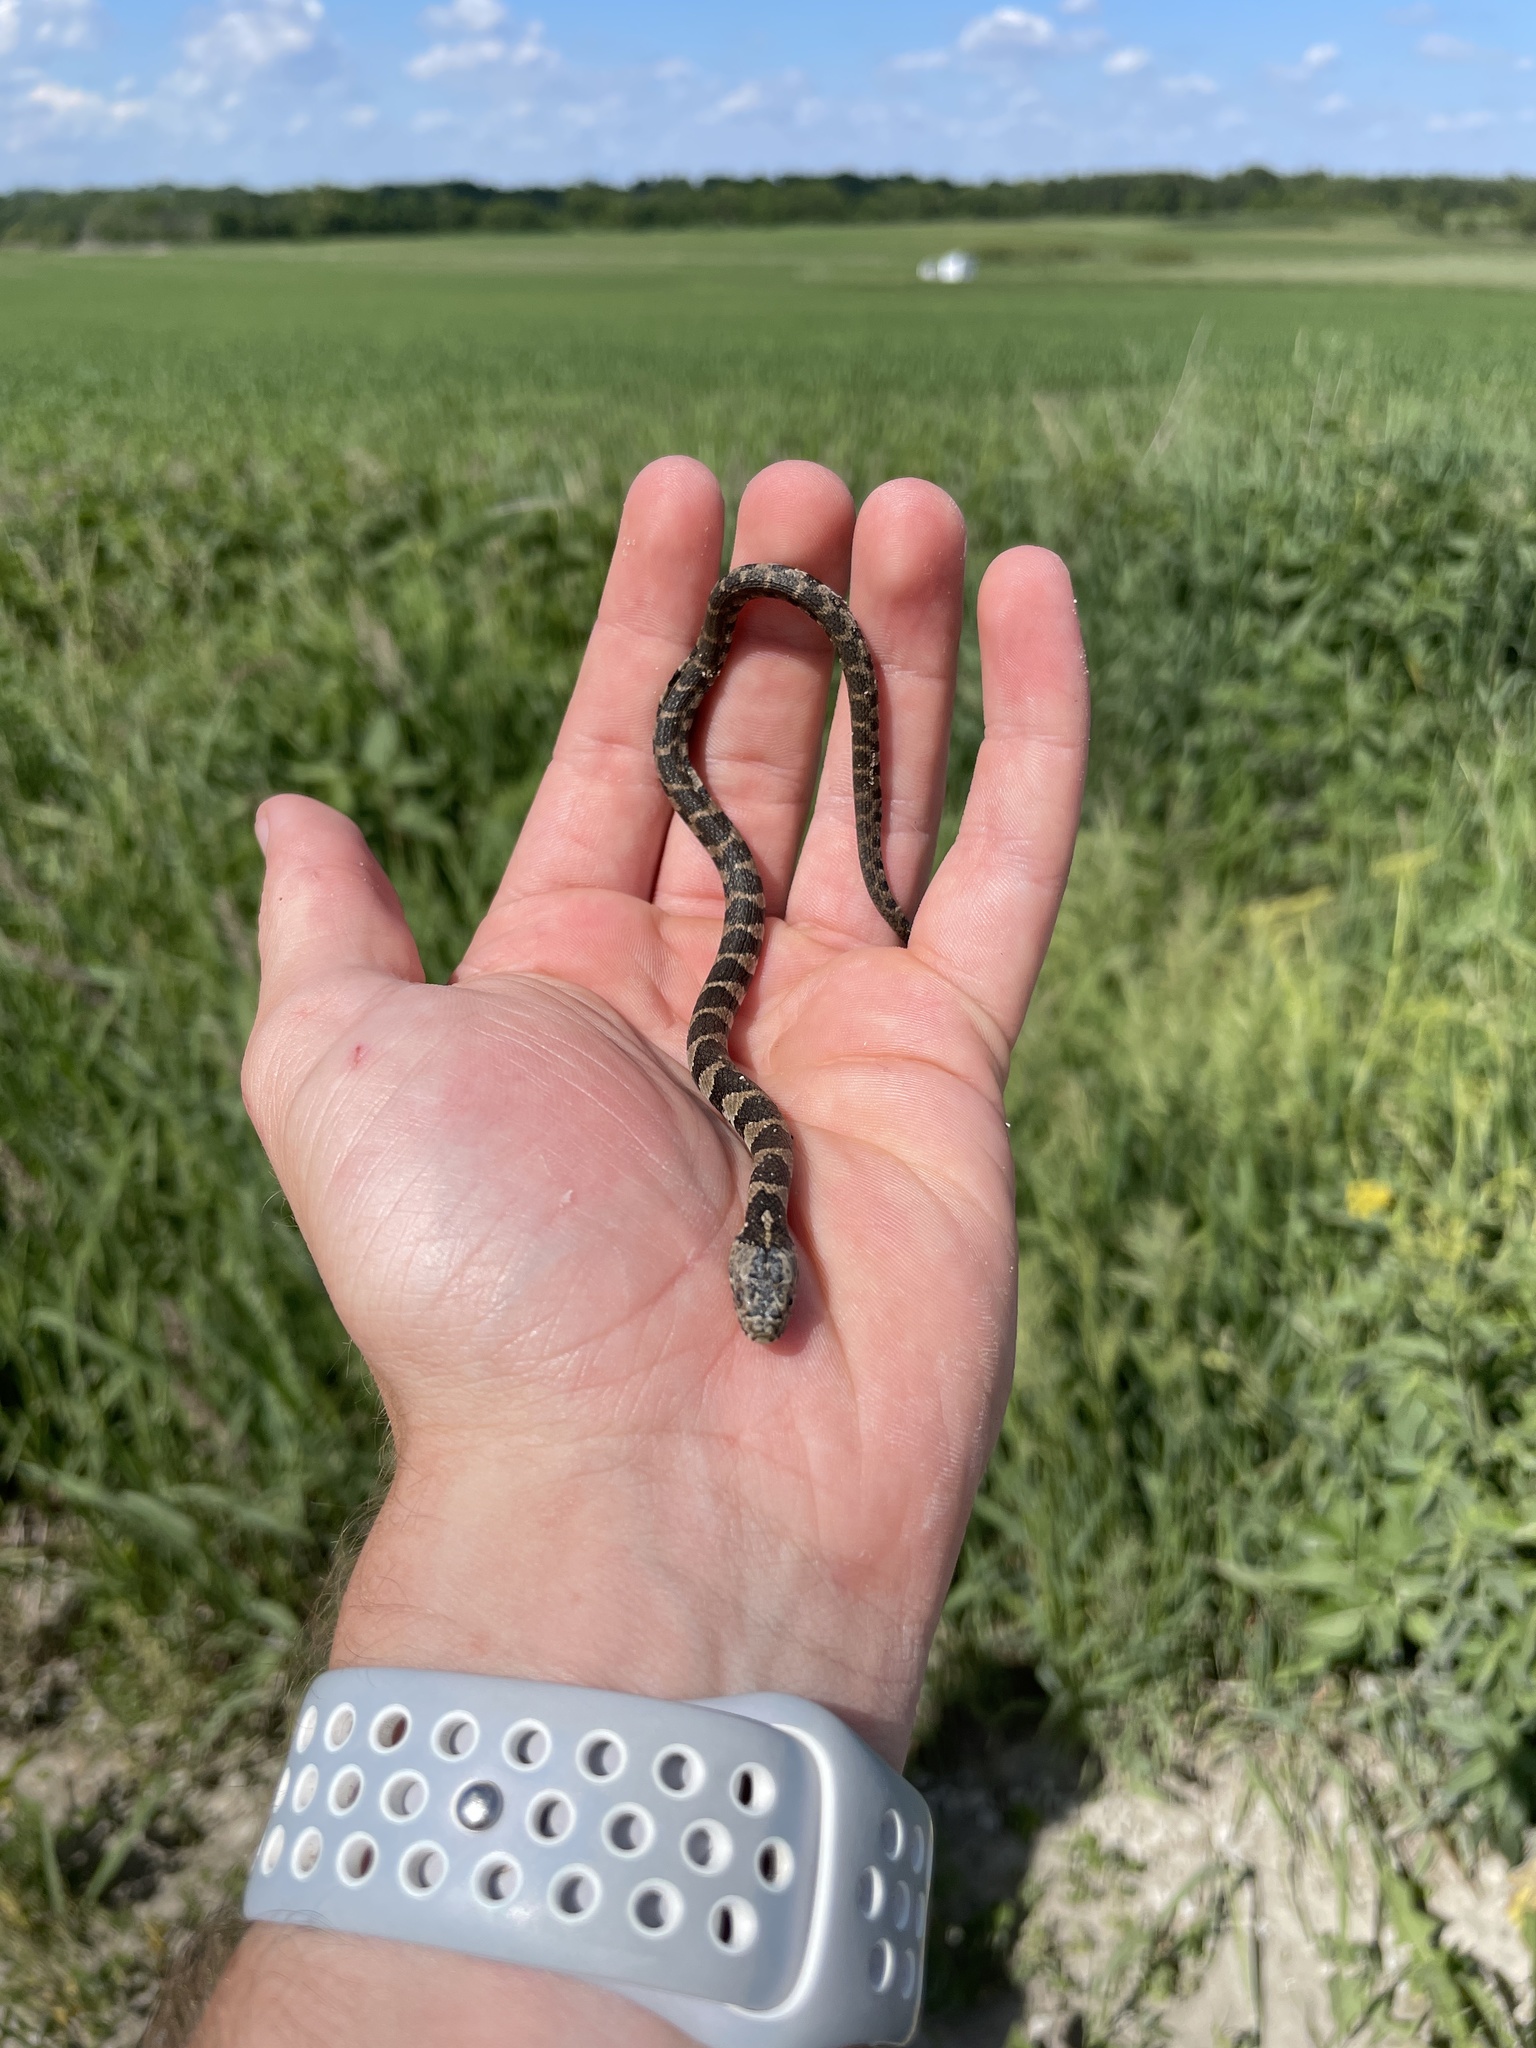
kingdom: Animalia
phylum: Chordata
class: Squamata
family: Colubridae
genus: Nerodia
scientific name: Nerodia sipedon
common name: Northern water snake
